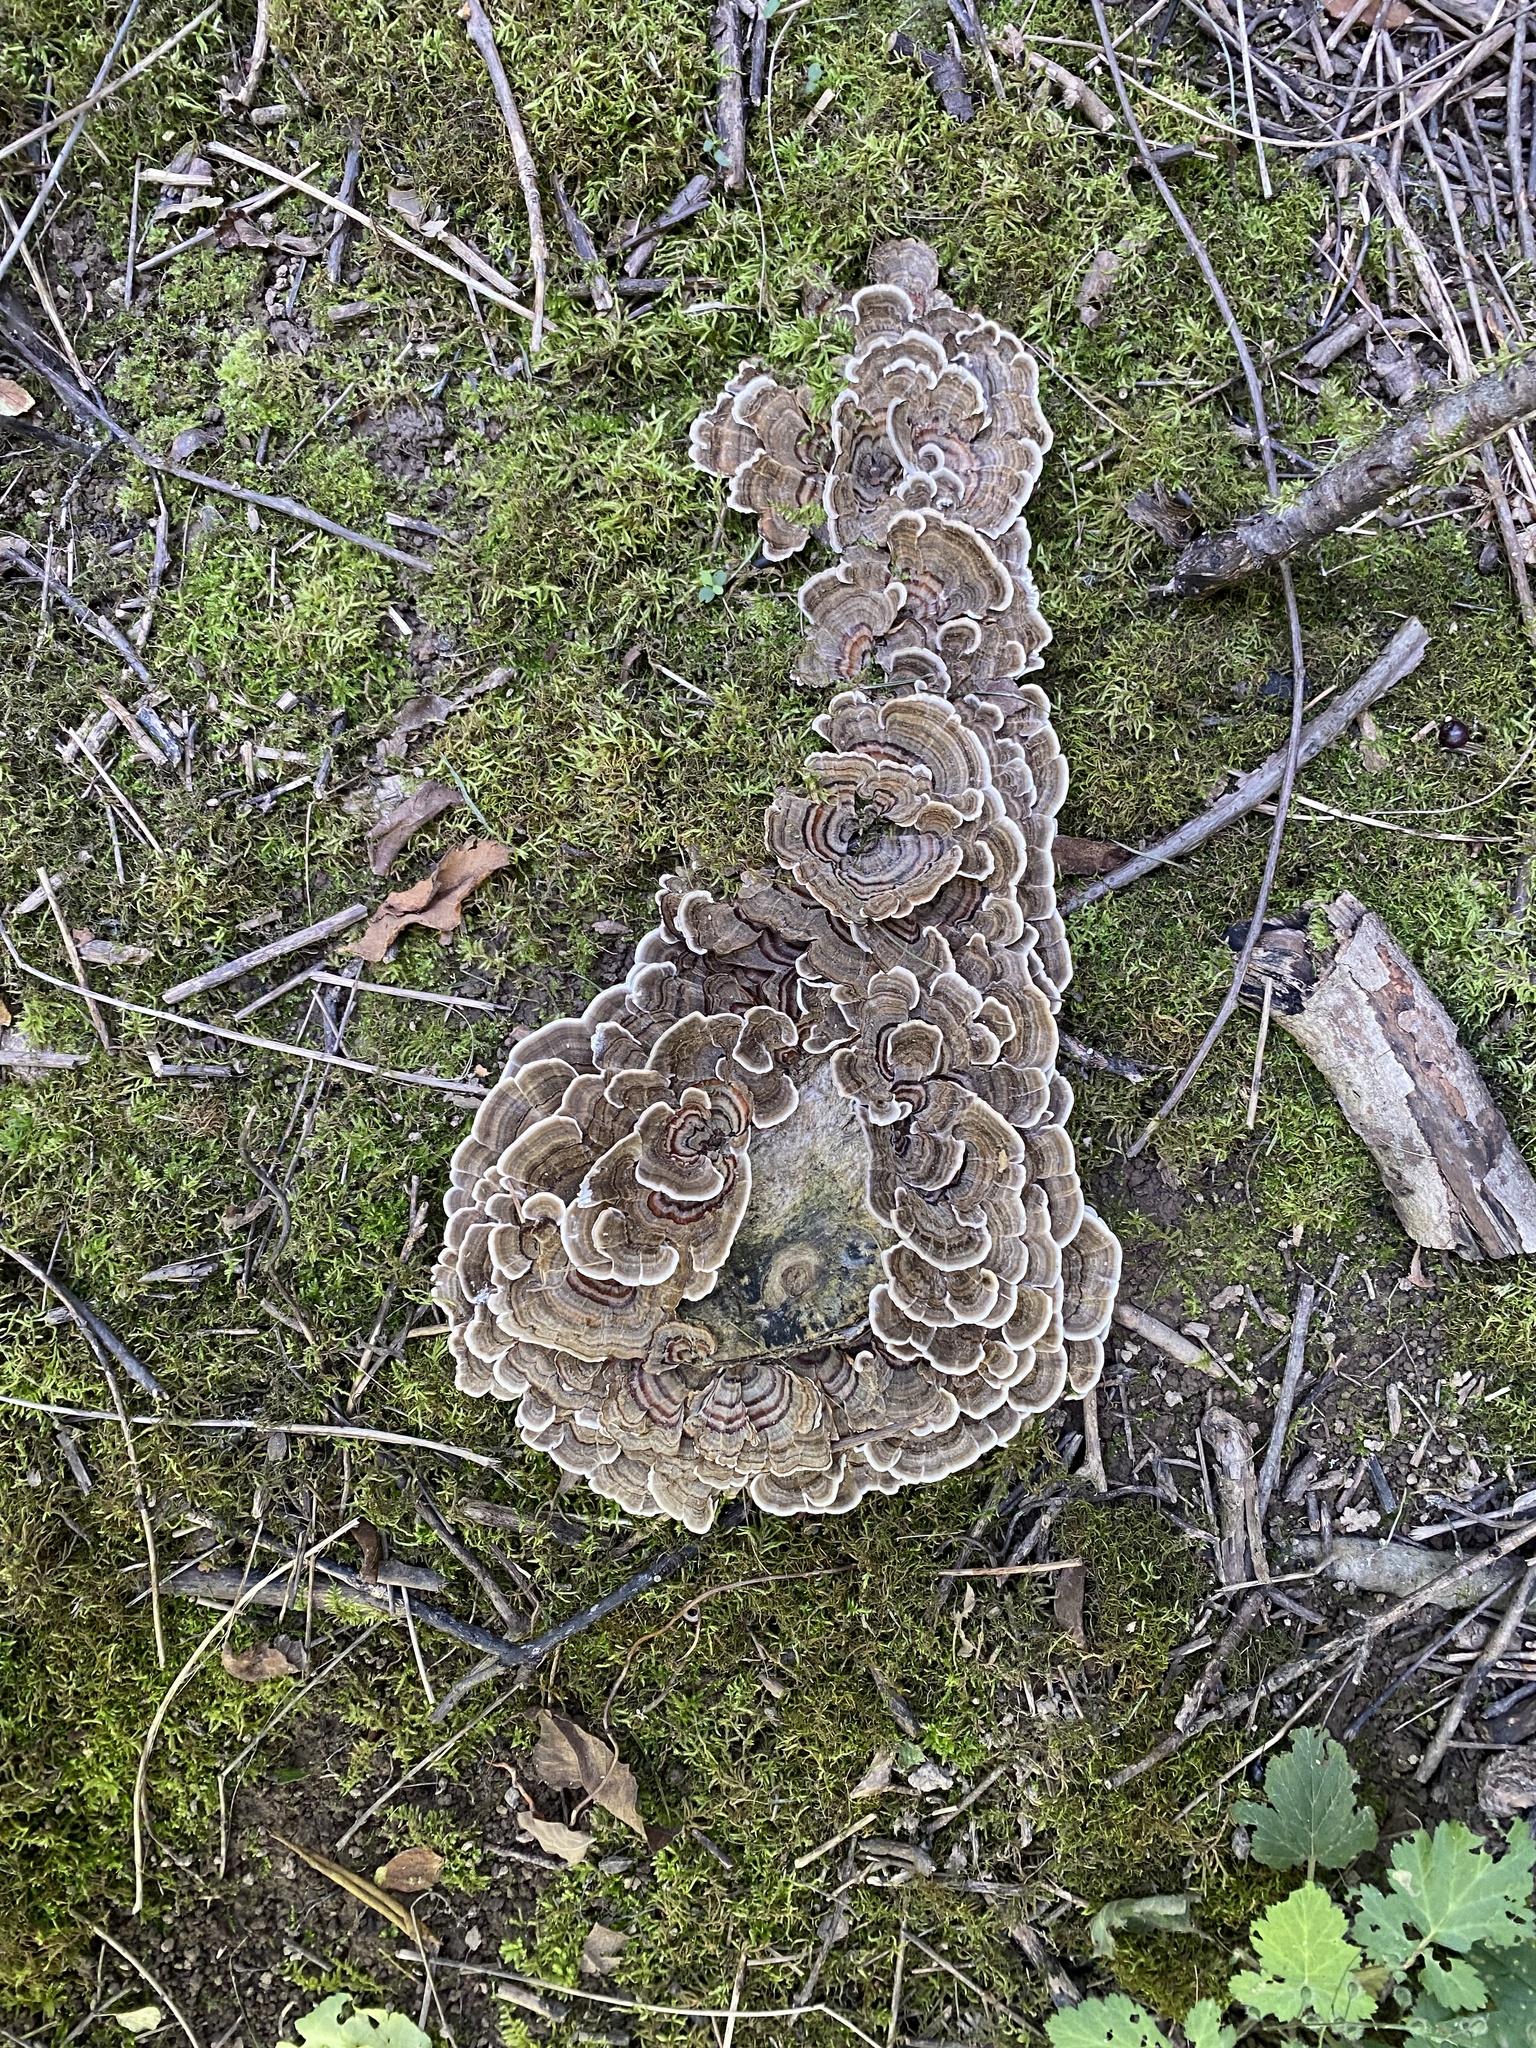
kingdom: Fungi
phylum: Basidiomycota
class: Agaricomycetes
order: Polyporales
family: Polyporaceae
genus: Trametes
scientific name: Trametes versicolor
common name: Turkeytail
